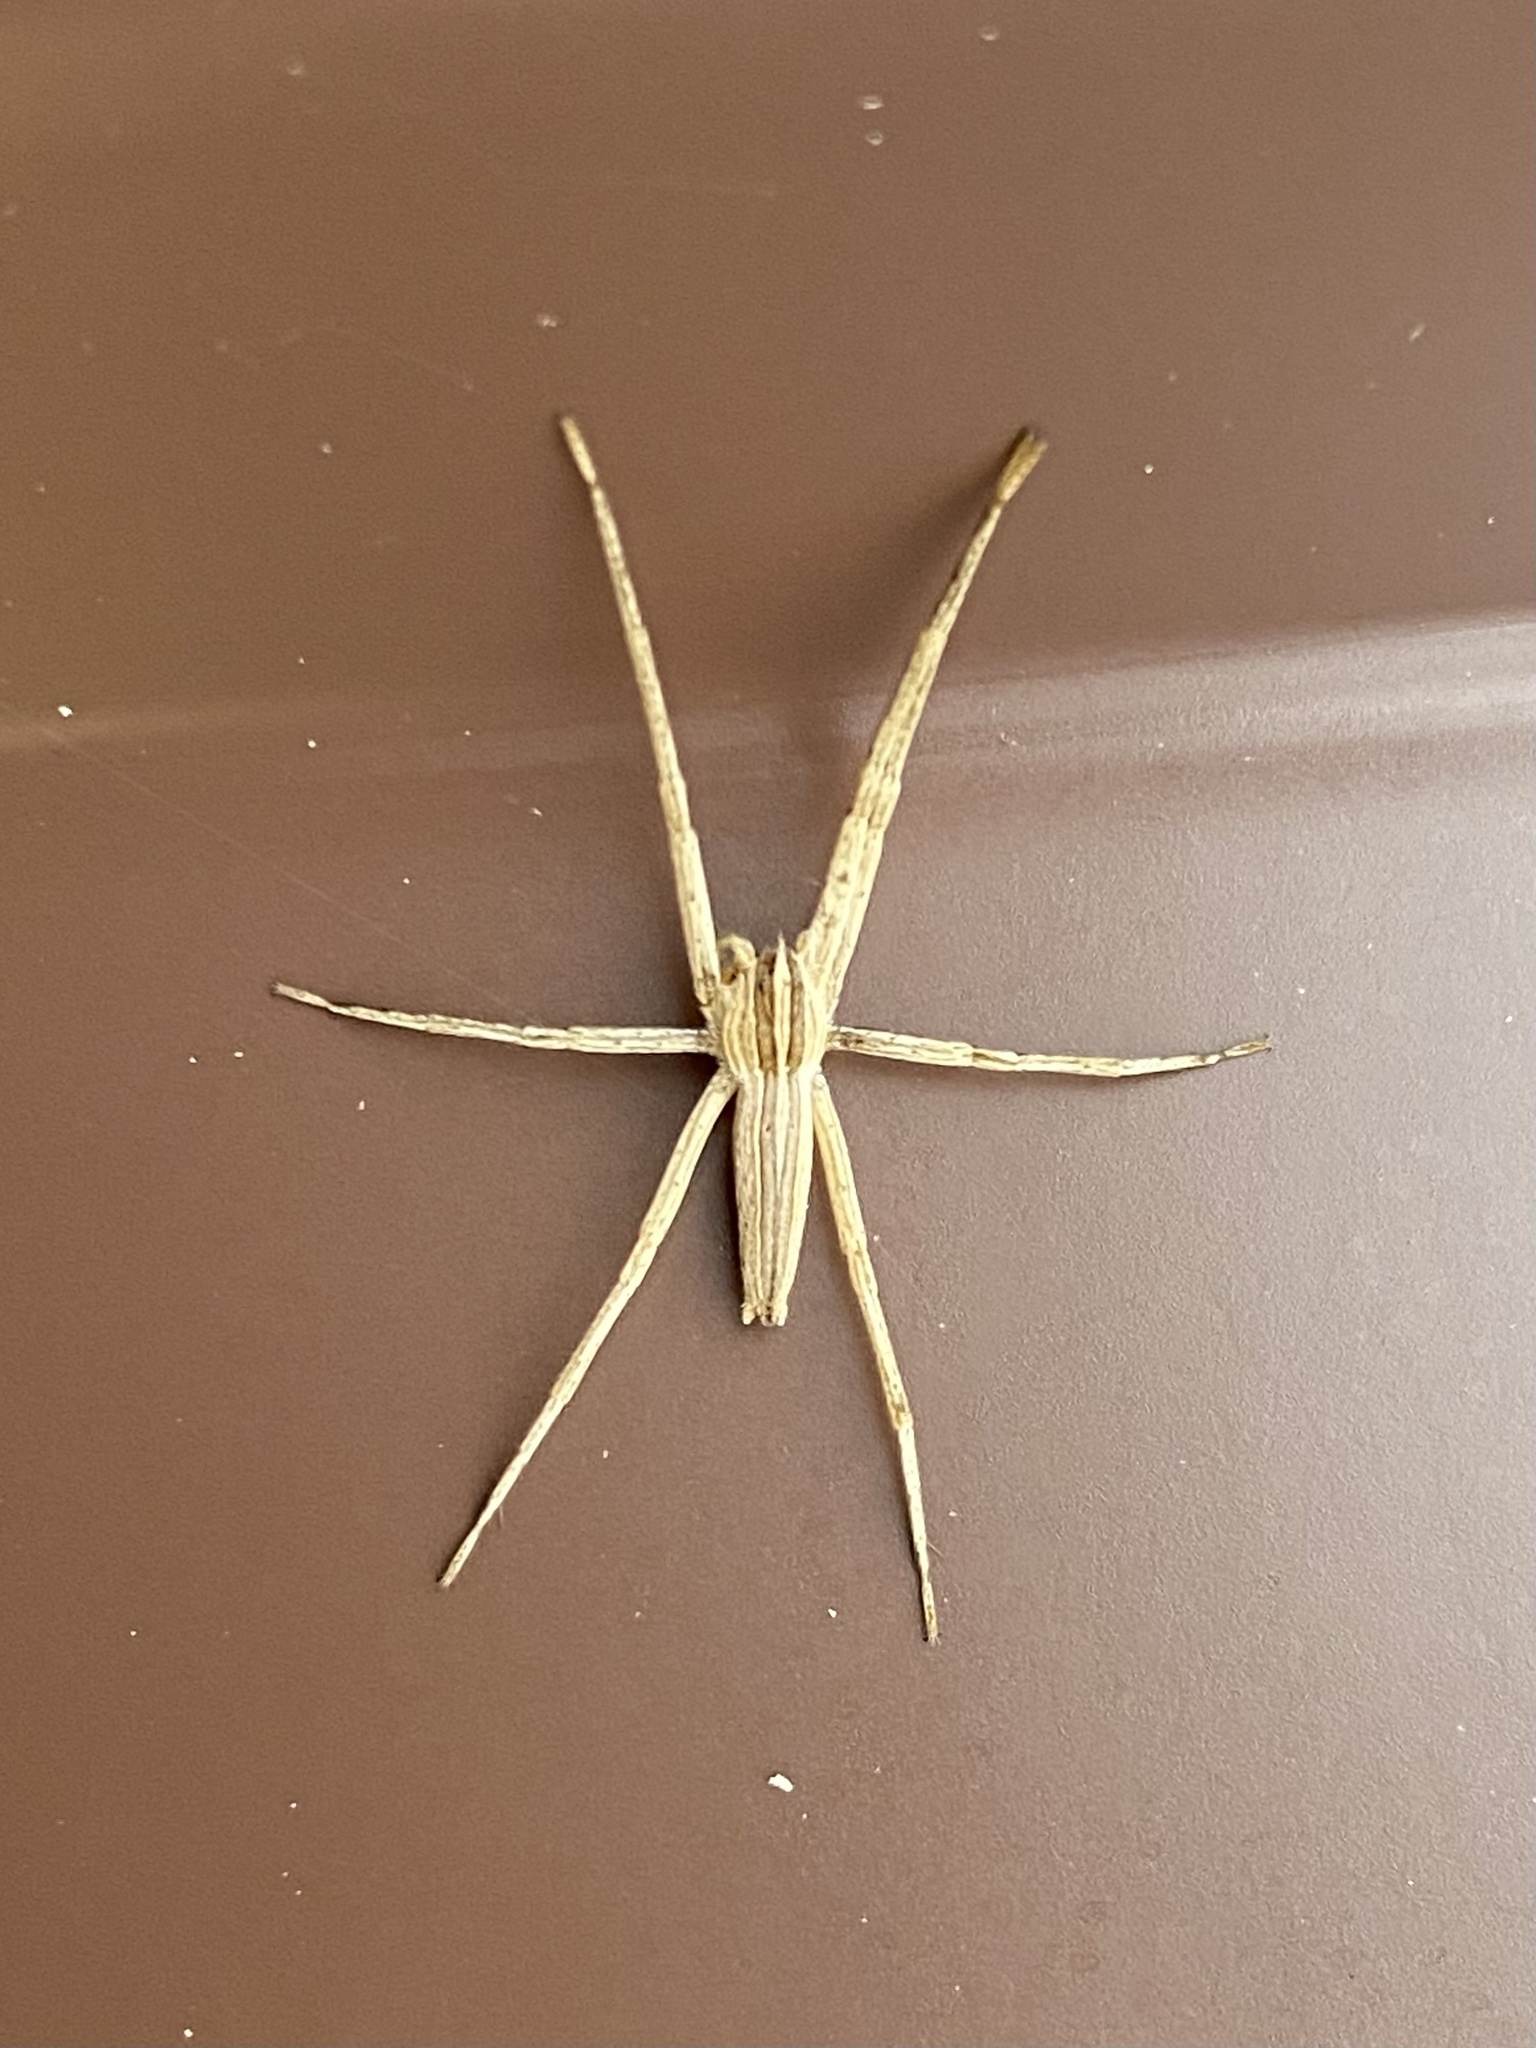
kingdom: Animalia
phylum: Arthropoda
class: Arachnida
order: Araneae
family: Pisauridae
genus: Pisaurina
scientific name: Pisaurina dubia
